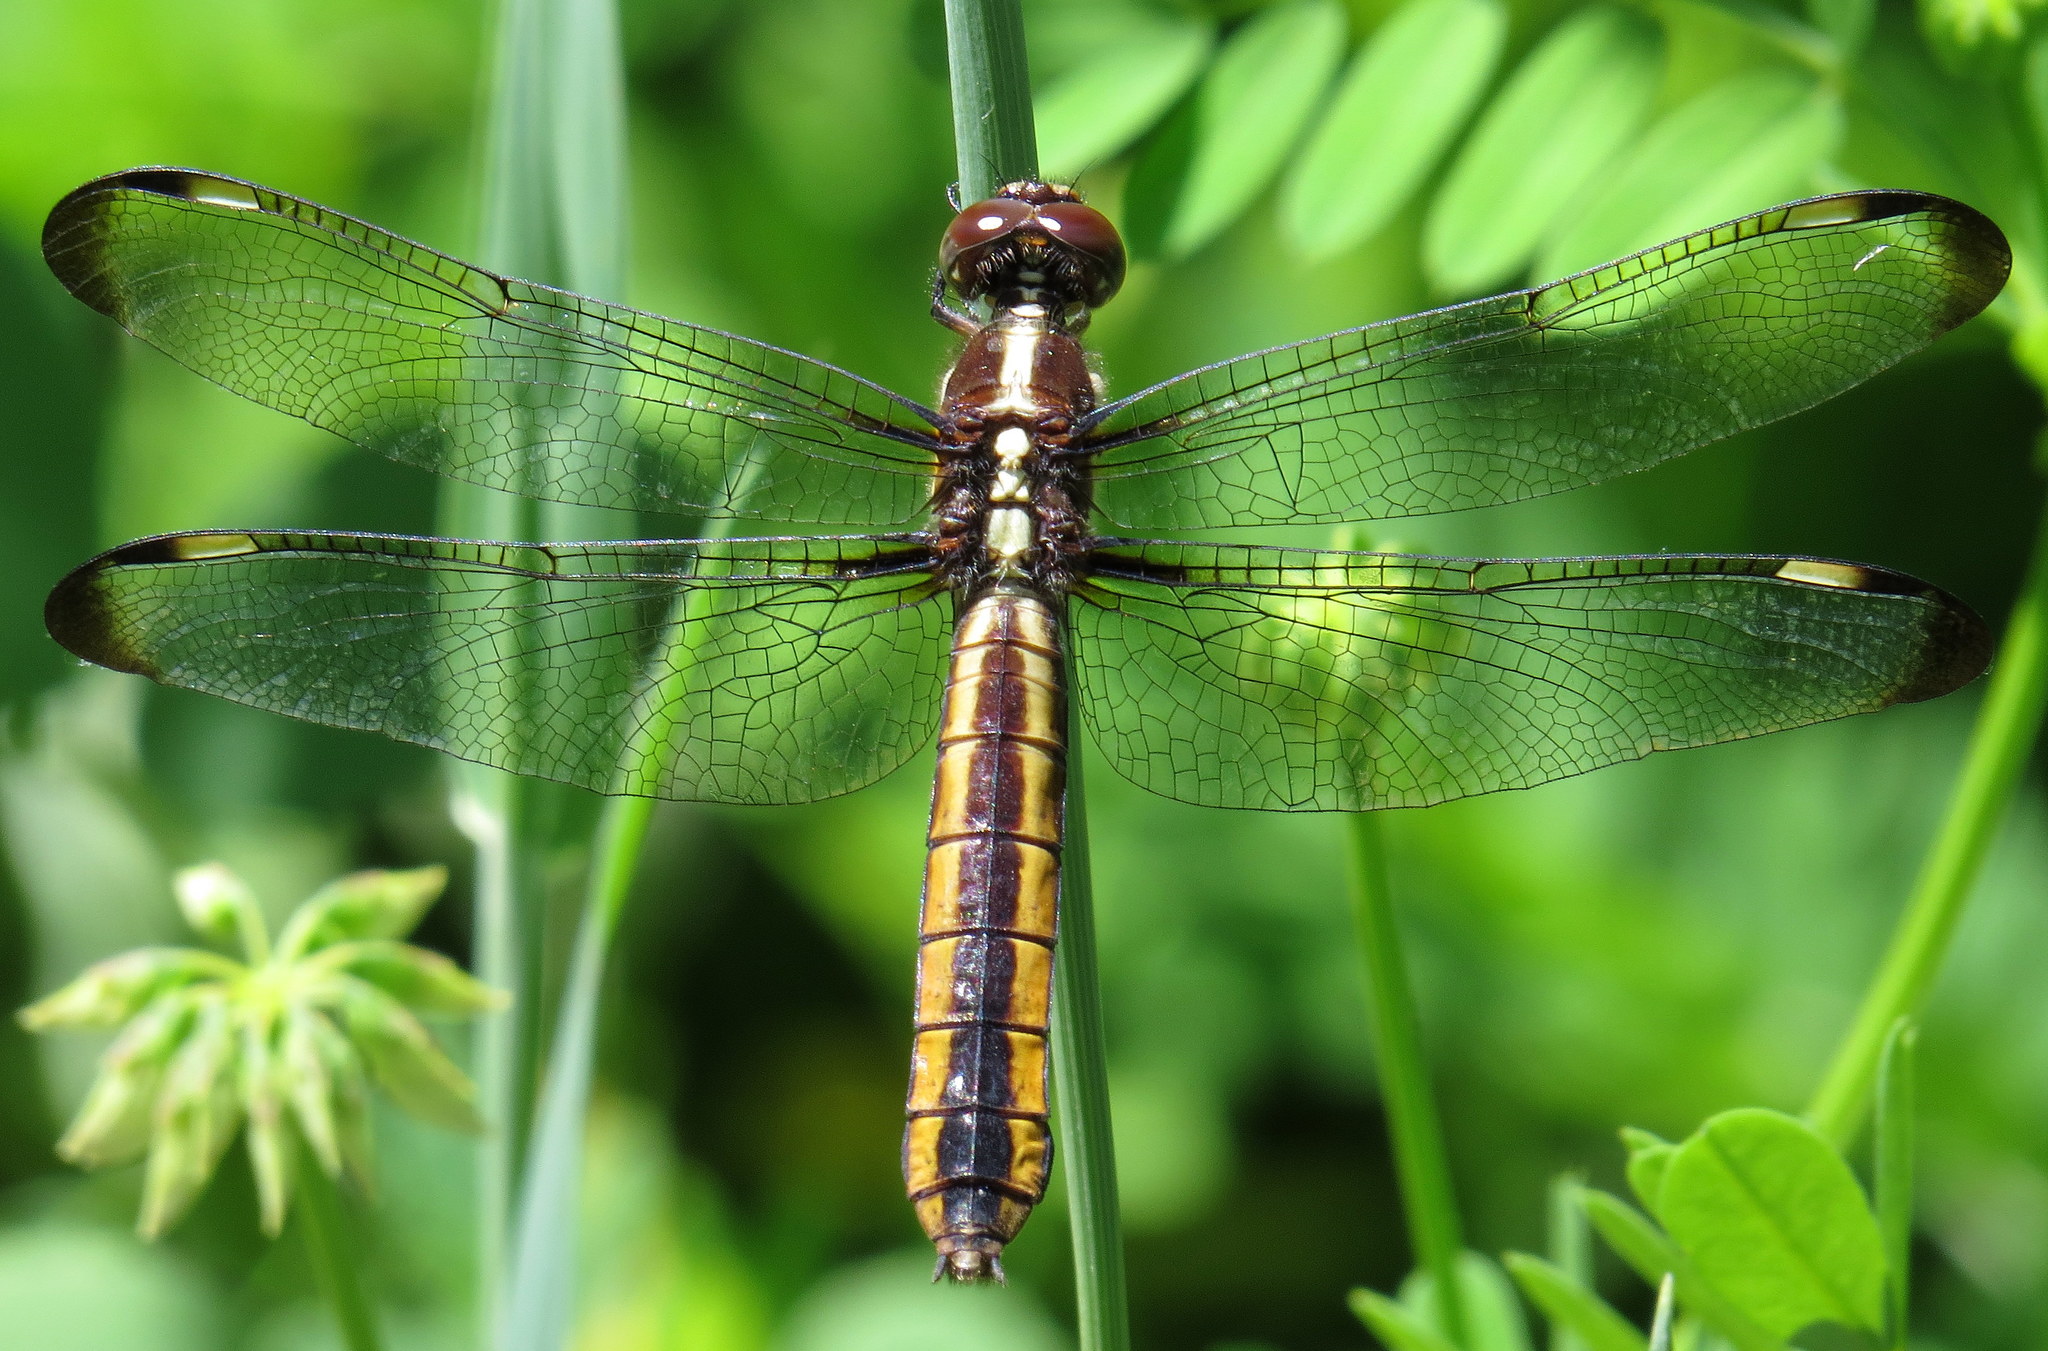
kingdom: Animalia
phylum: Arthropoda
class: Insecta
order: Odonata
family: Libellulidae
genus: Libellula
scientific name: Libellula cyanea
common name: Spangled skimmer
